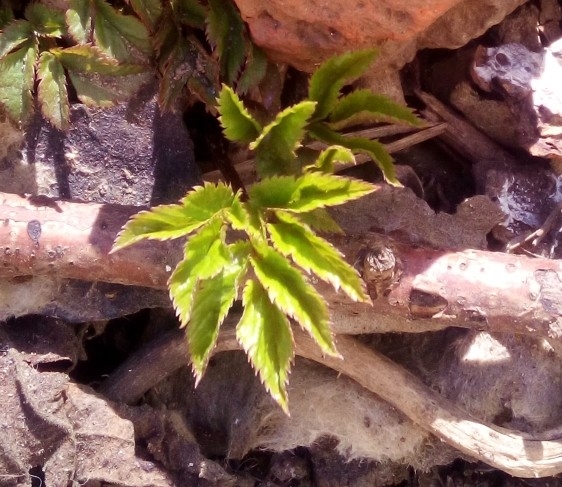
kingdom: Plantae
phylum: Tracheophyta
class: Magnoliopsida
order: Apiales
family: Apiaceae
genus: Aegopodium
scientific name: Aegopodium podagraria
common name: Ground-elder
